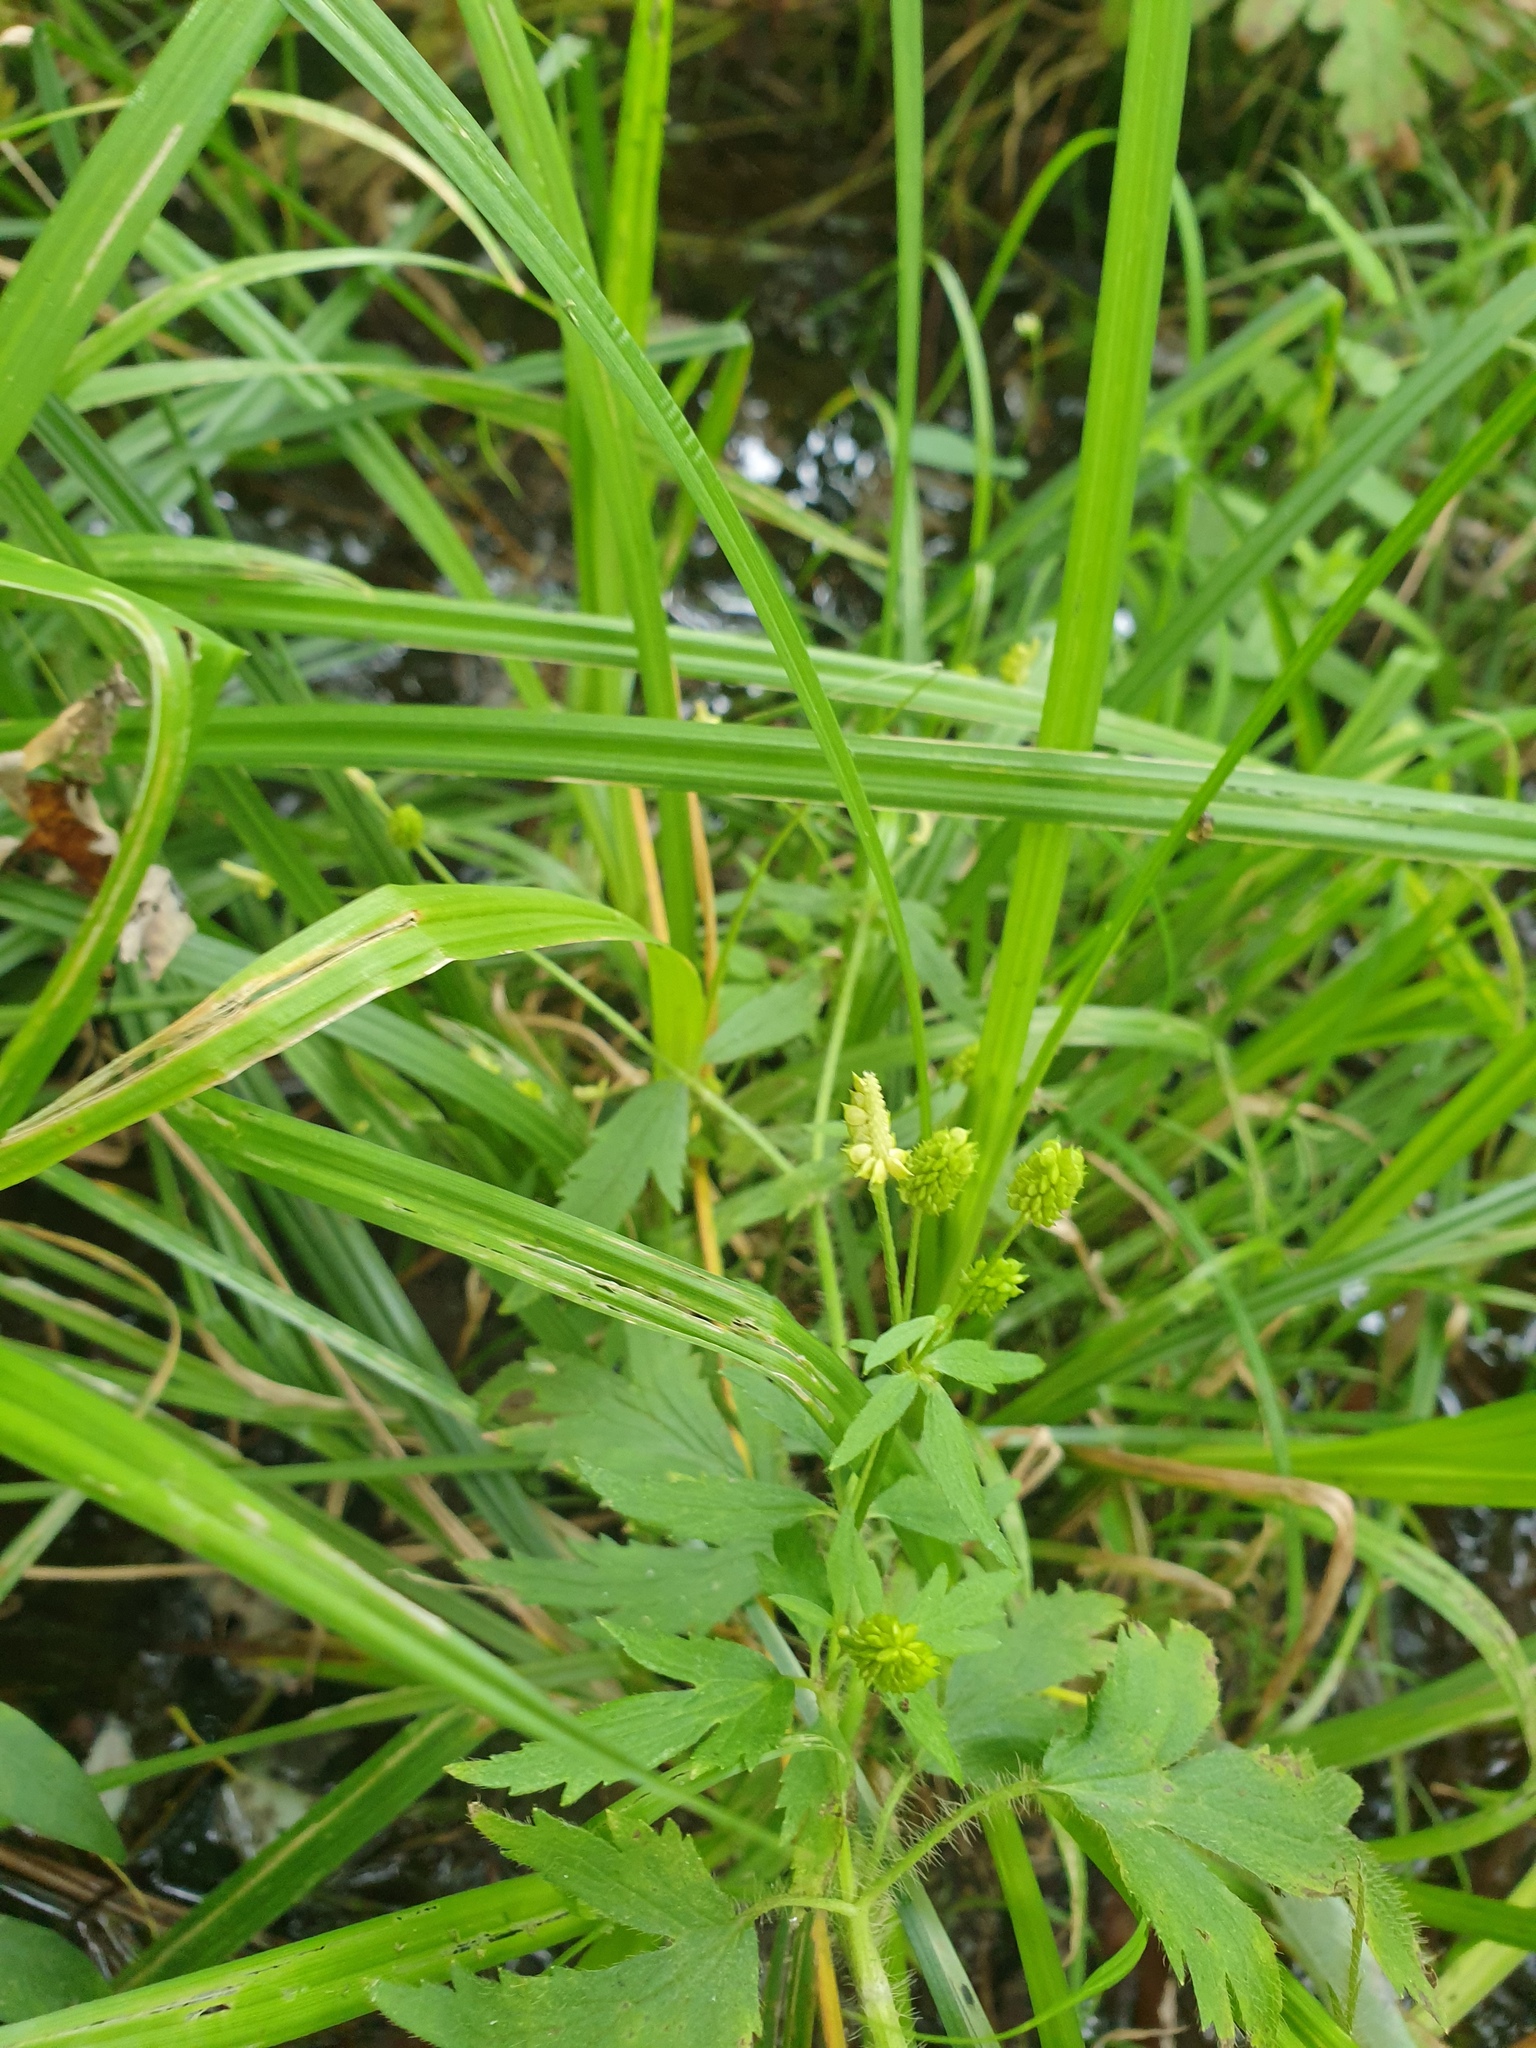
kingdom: Plantae
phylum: Tracheophyta
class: Magnoliopsida
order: Ranunculales
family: Ranunculaceae
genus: Ranunculus
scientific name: Ranunculus pensylvanicus
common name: Bristly buttercup
